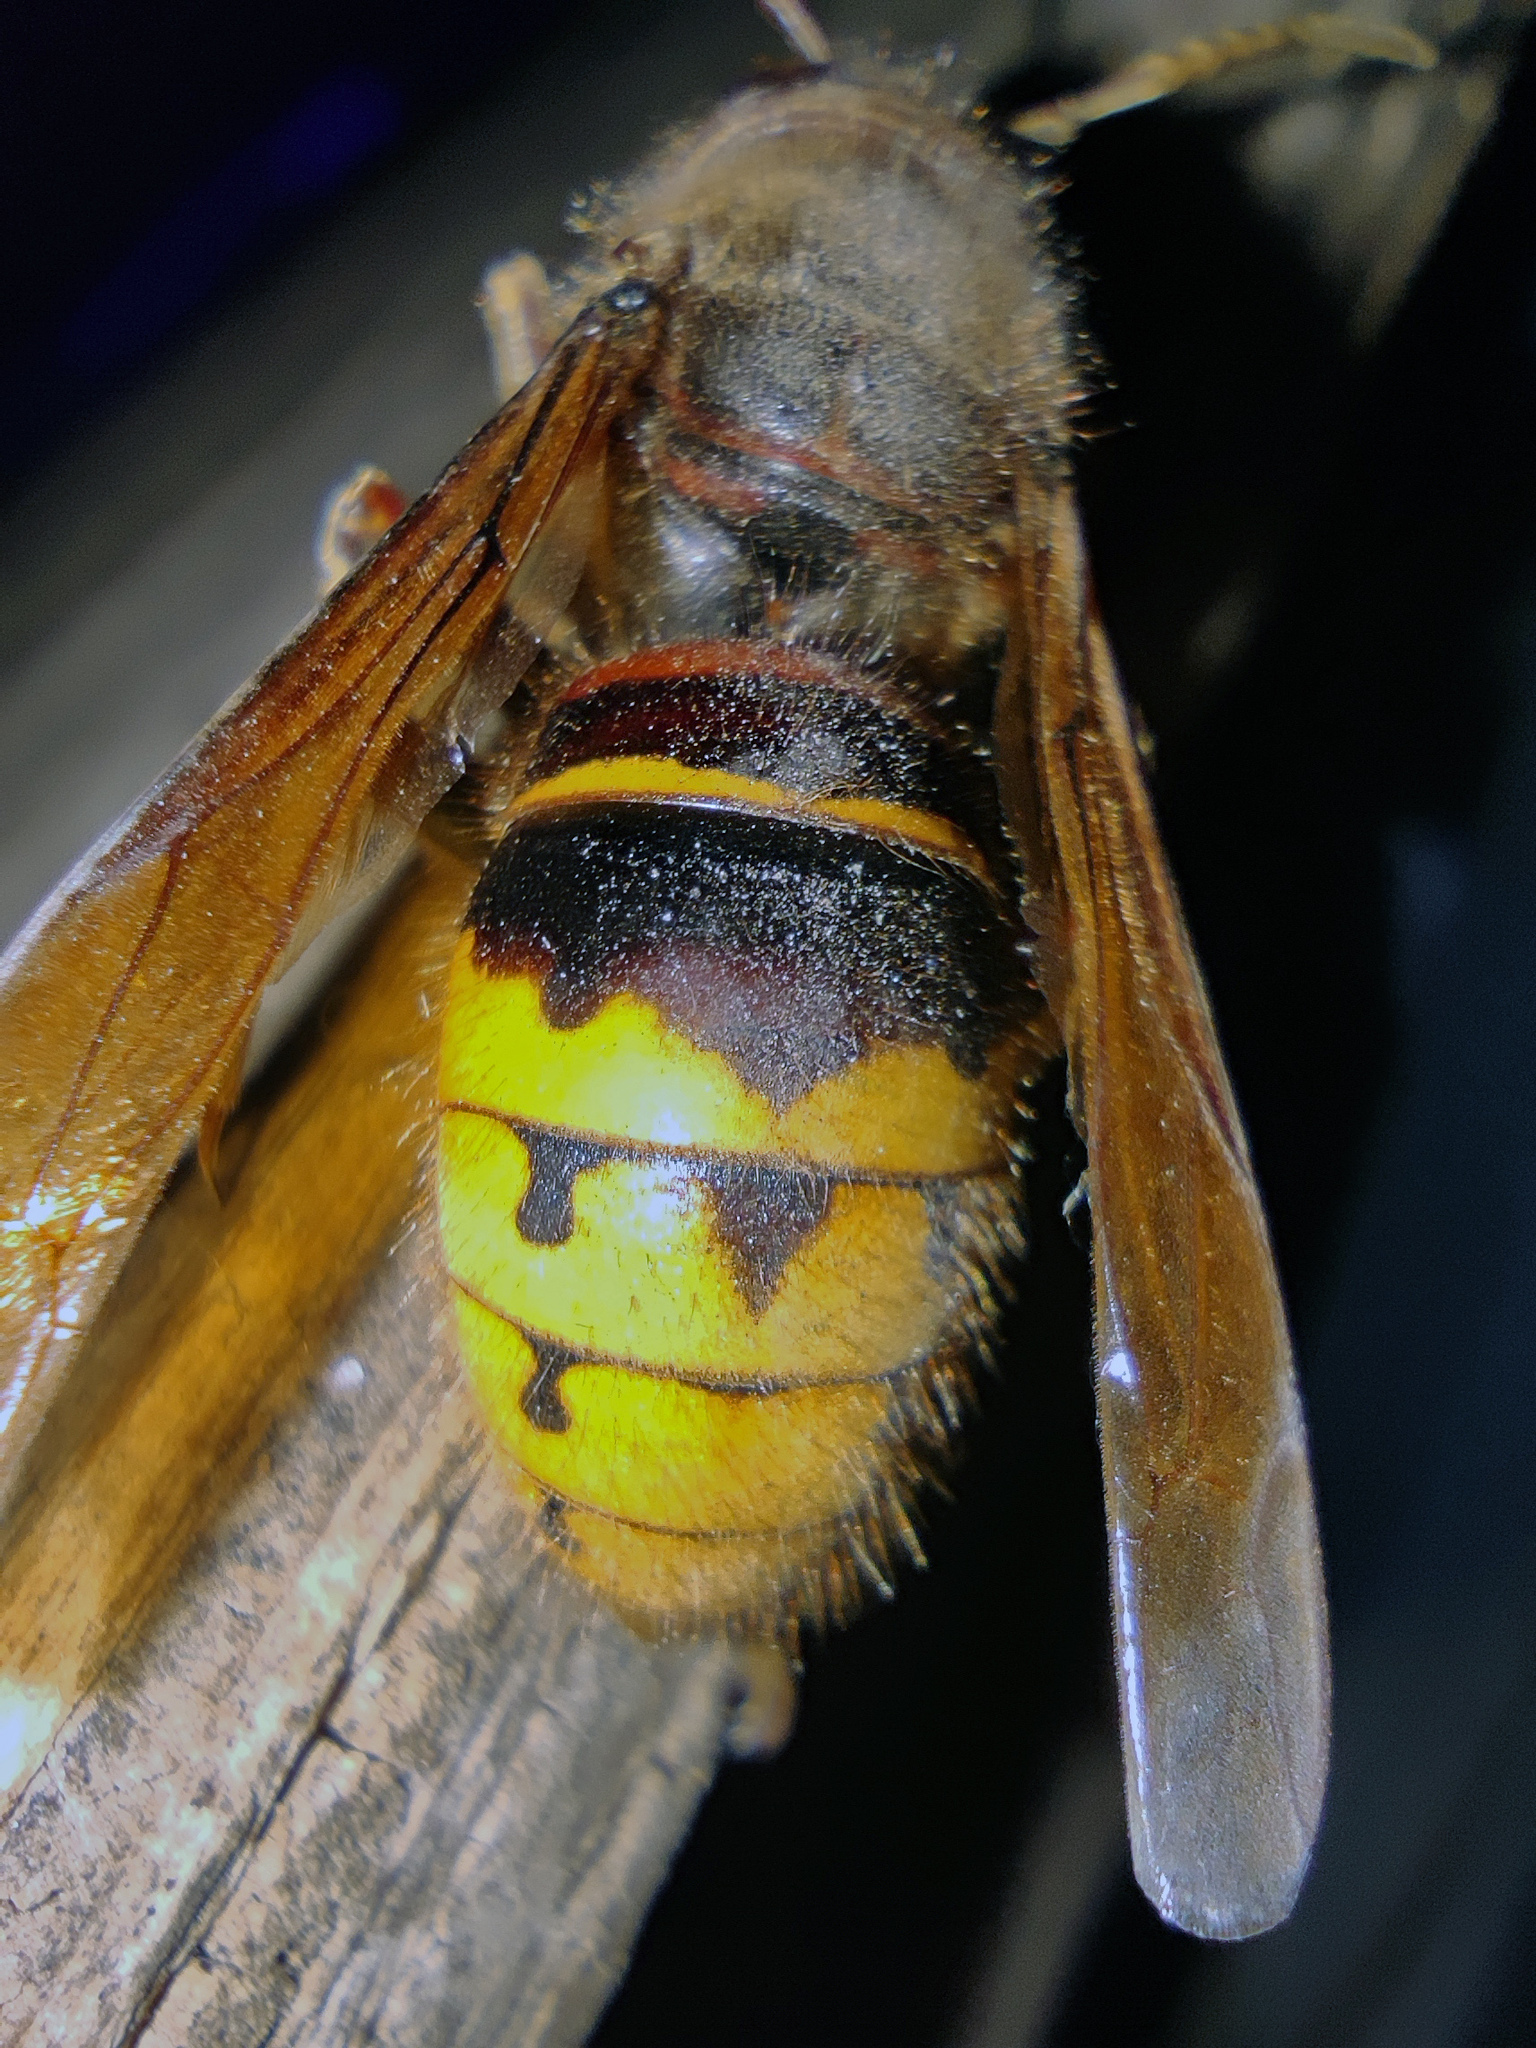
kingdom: Animalia
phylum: Arthropoda
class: Insecta
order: Hymenoptera
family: Vespidae
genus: Vespa
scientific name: Vespa crabro
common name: Hornet
